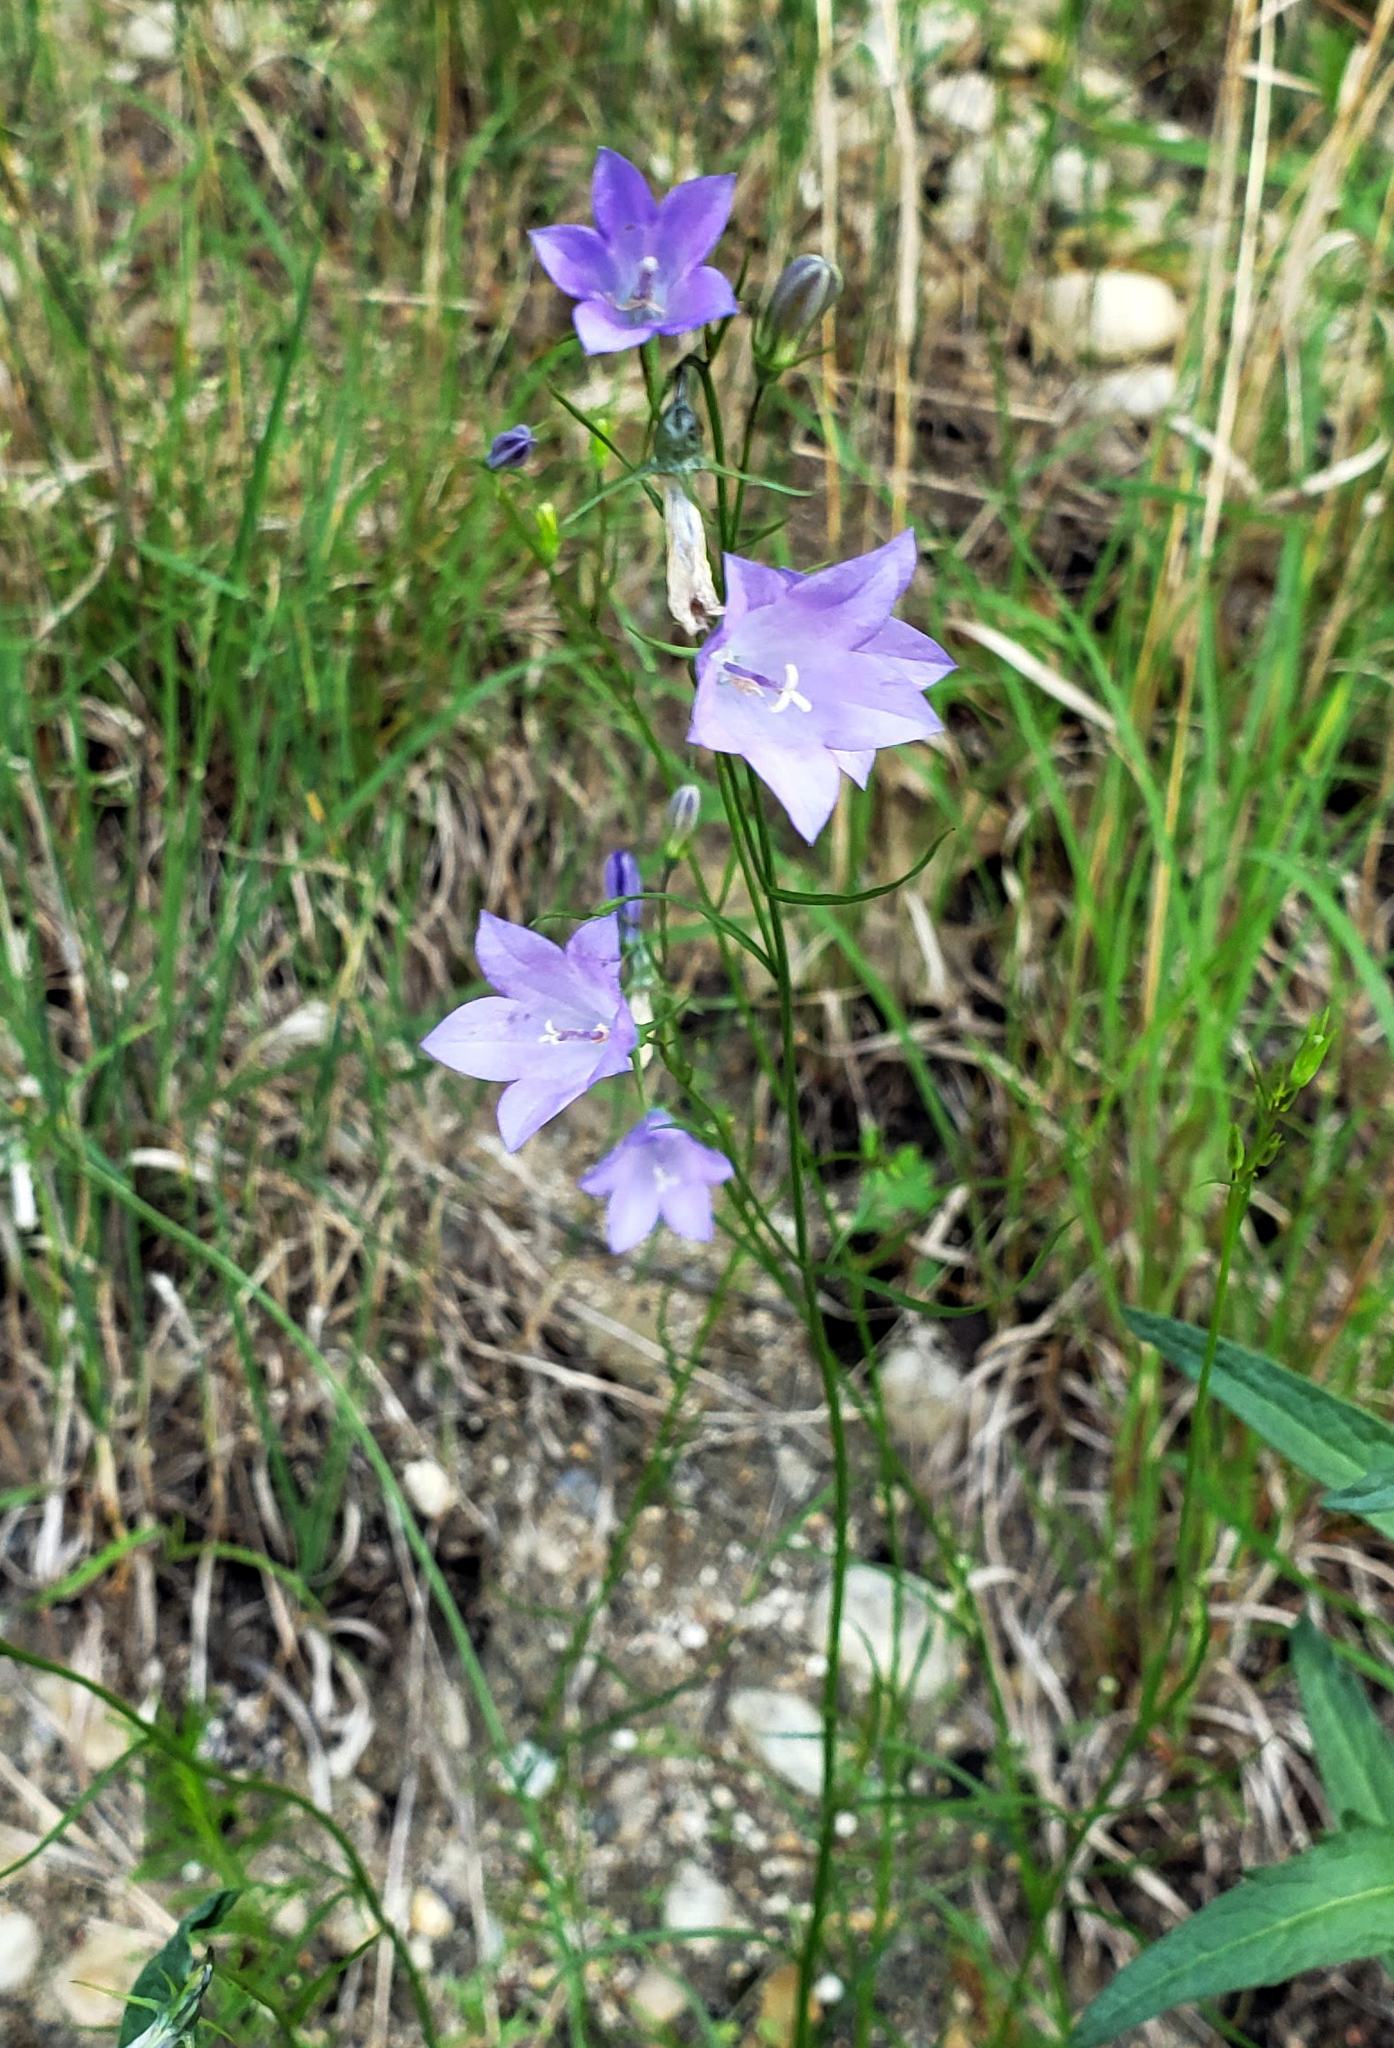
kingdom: Plantae
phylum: Tracheophyta
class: Magnoliopsida
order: Asterales
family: Campanulaceae
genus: Campanula
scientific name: Campanula intercedens
